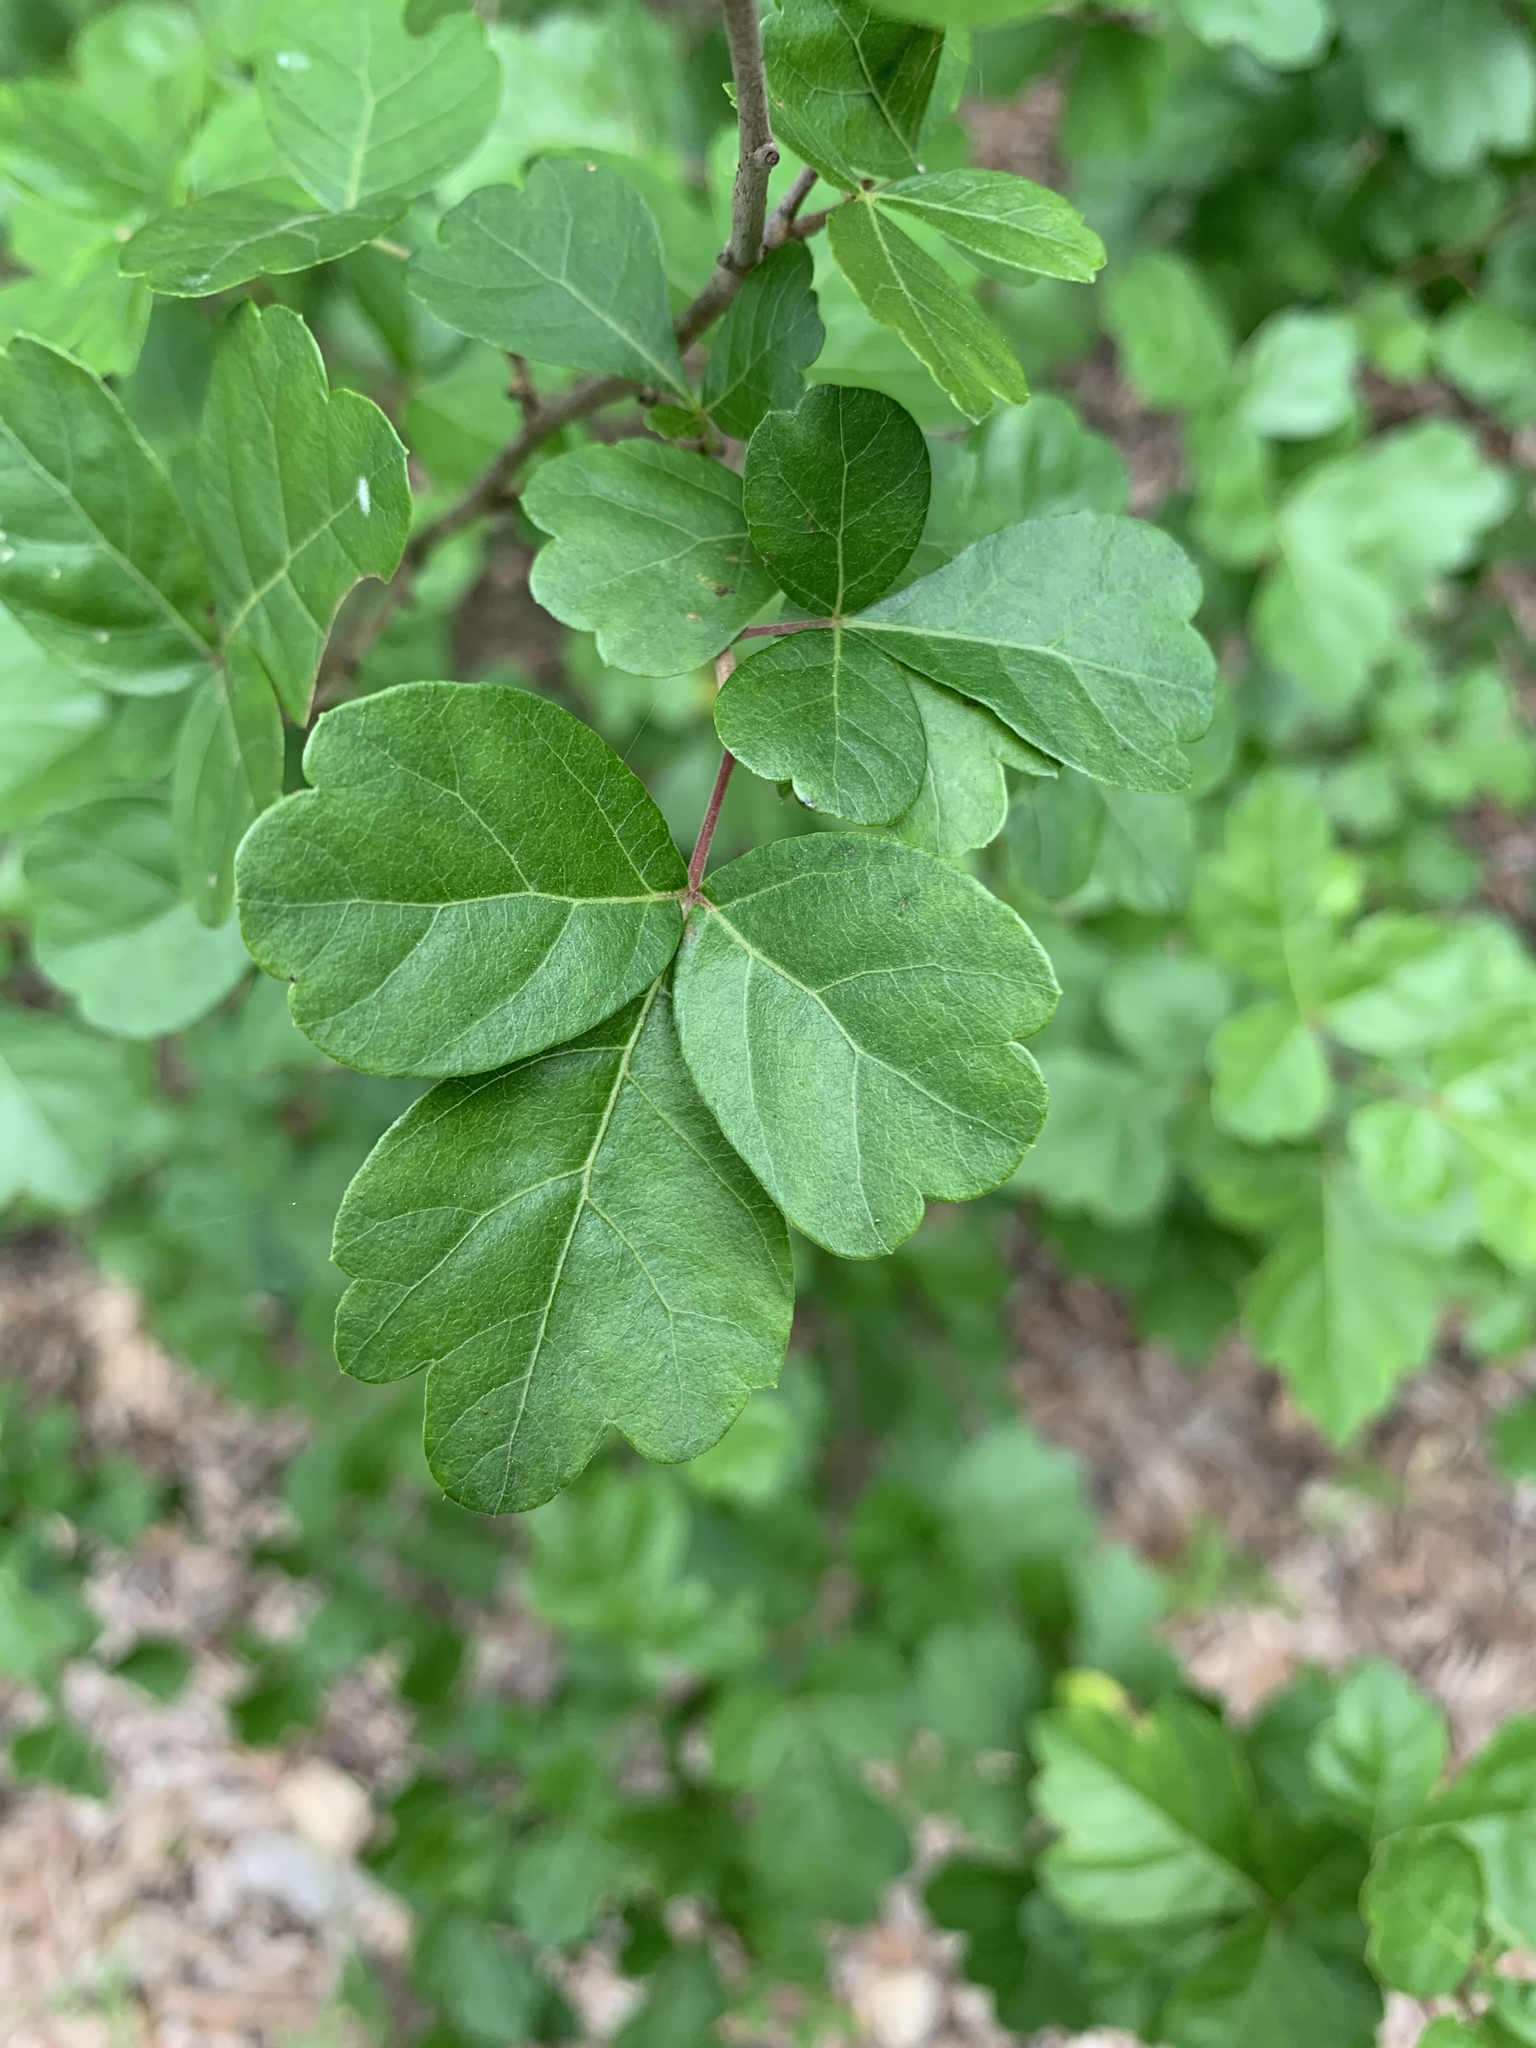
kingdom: Plantae
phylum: Tracheophyta
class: Magnoliopsida
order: Sapindales
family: Anacardiaceae
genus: Rhus
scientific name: Rhus aromatica
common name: Aromatic sumac
